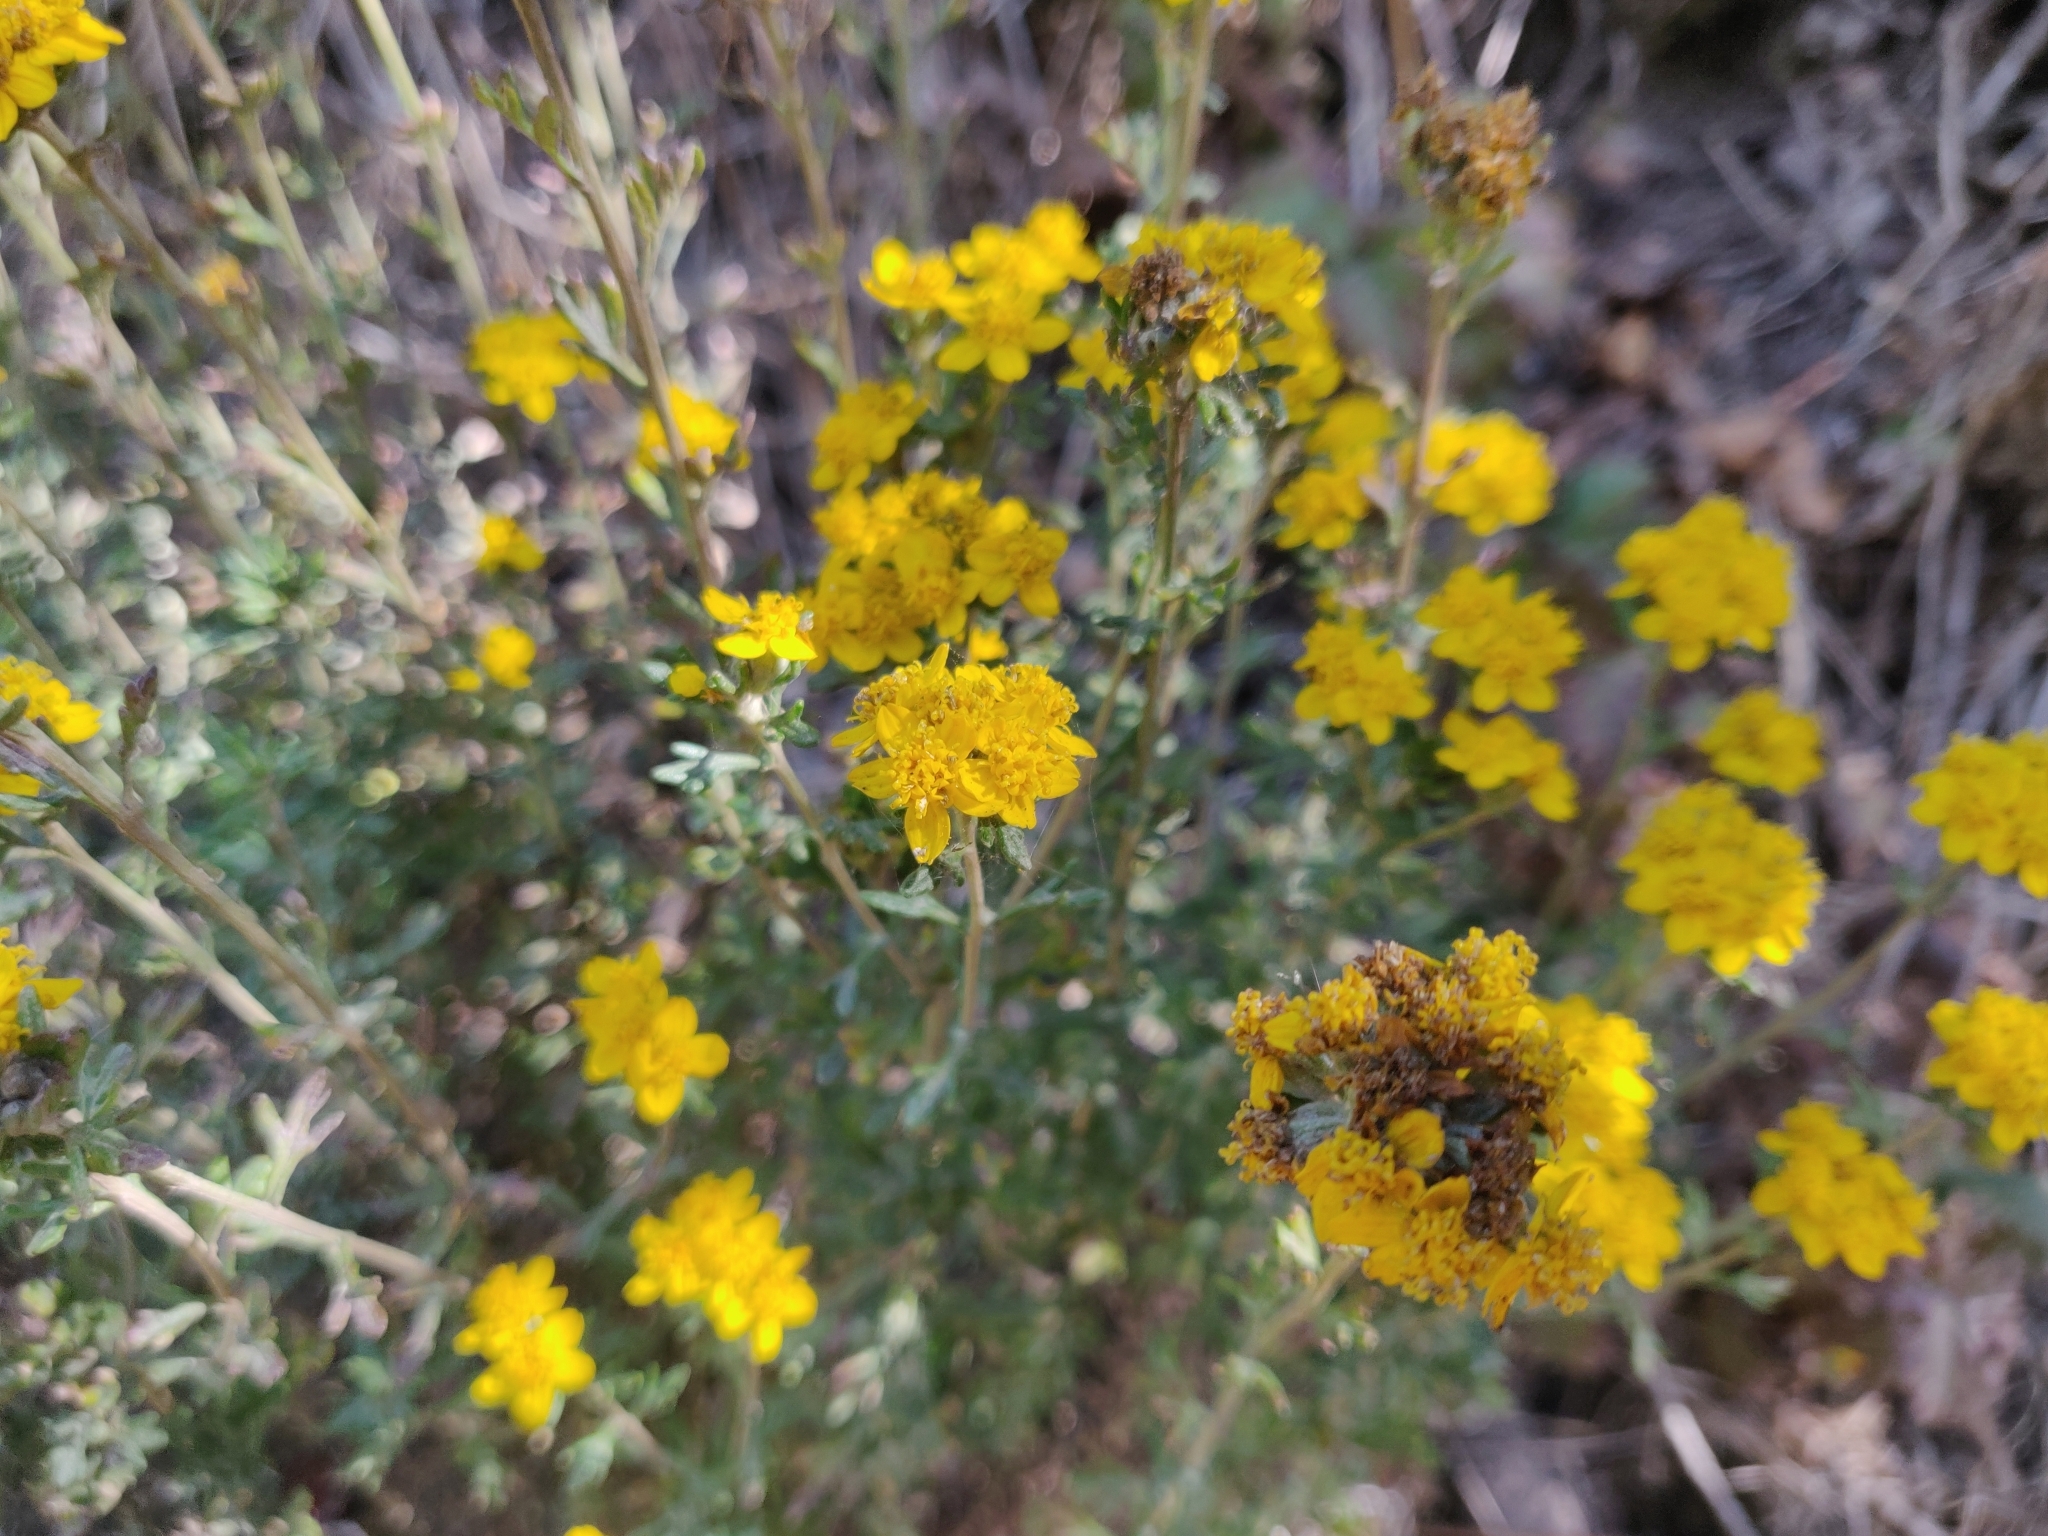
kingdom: Plantae
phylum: Tracheophyta
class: Magnoliopsida
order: Asterales
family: Asteraceae
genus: Eriophyllum
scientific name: Eriophyllum confertiflorum
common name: Golden-yarrow
